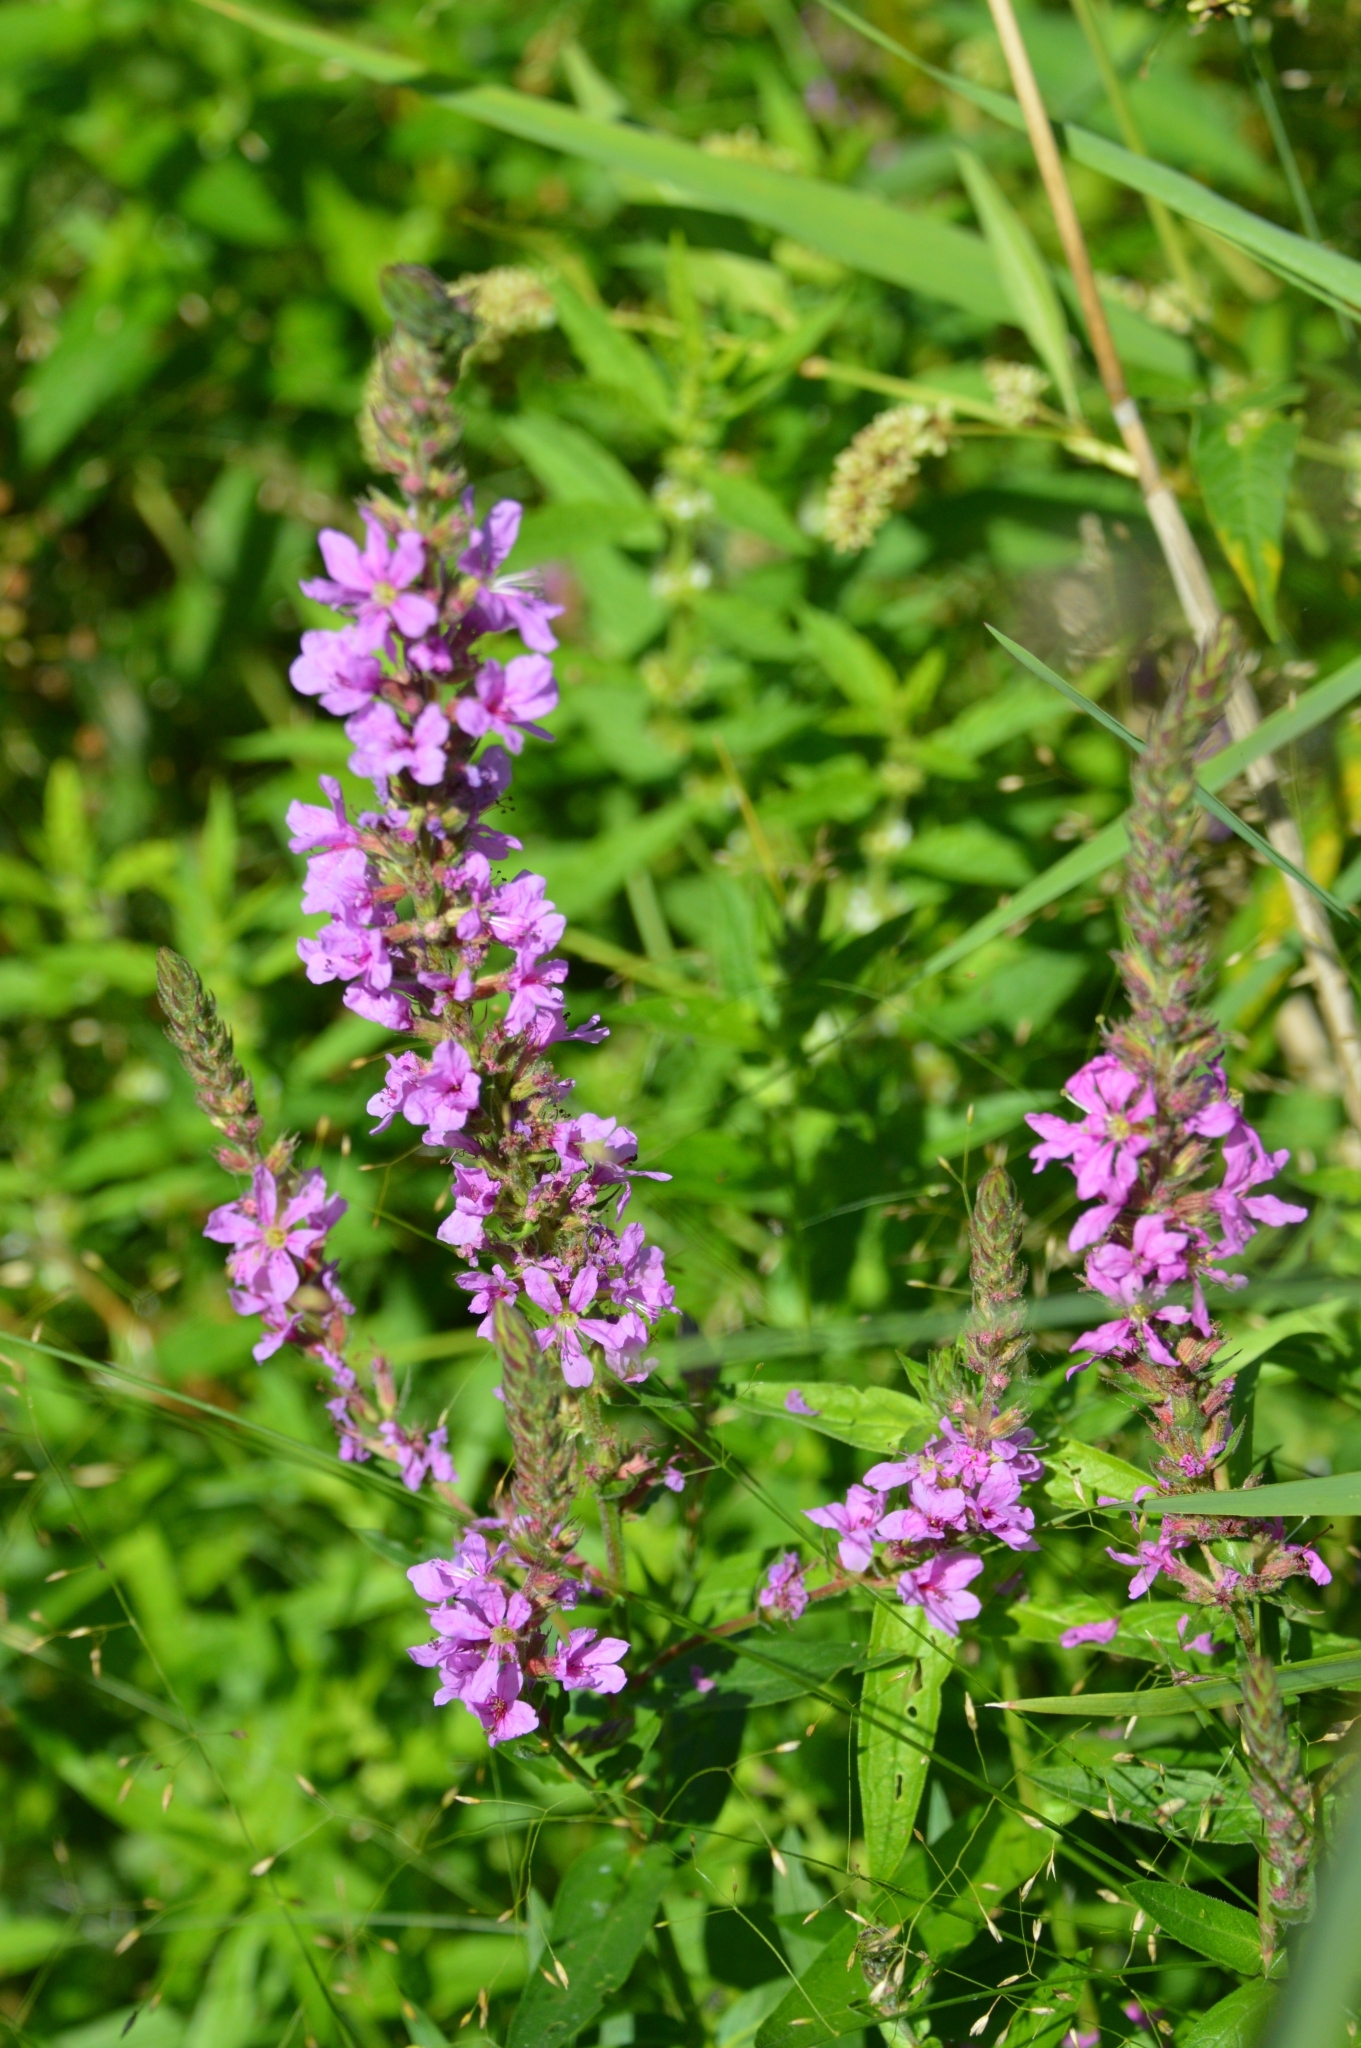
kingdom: Plantae
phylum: Tracheophyta
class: Magnoliopsida
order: Myrtales
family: Lythraceae
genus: Lythrum
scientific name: Lythrum salicaria
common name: Purple loosestrife
